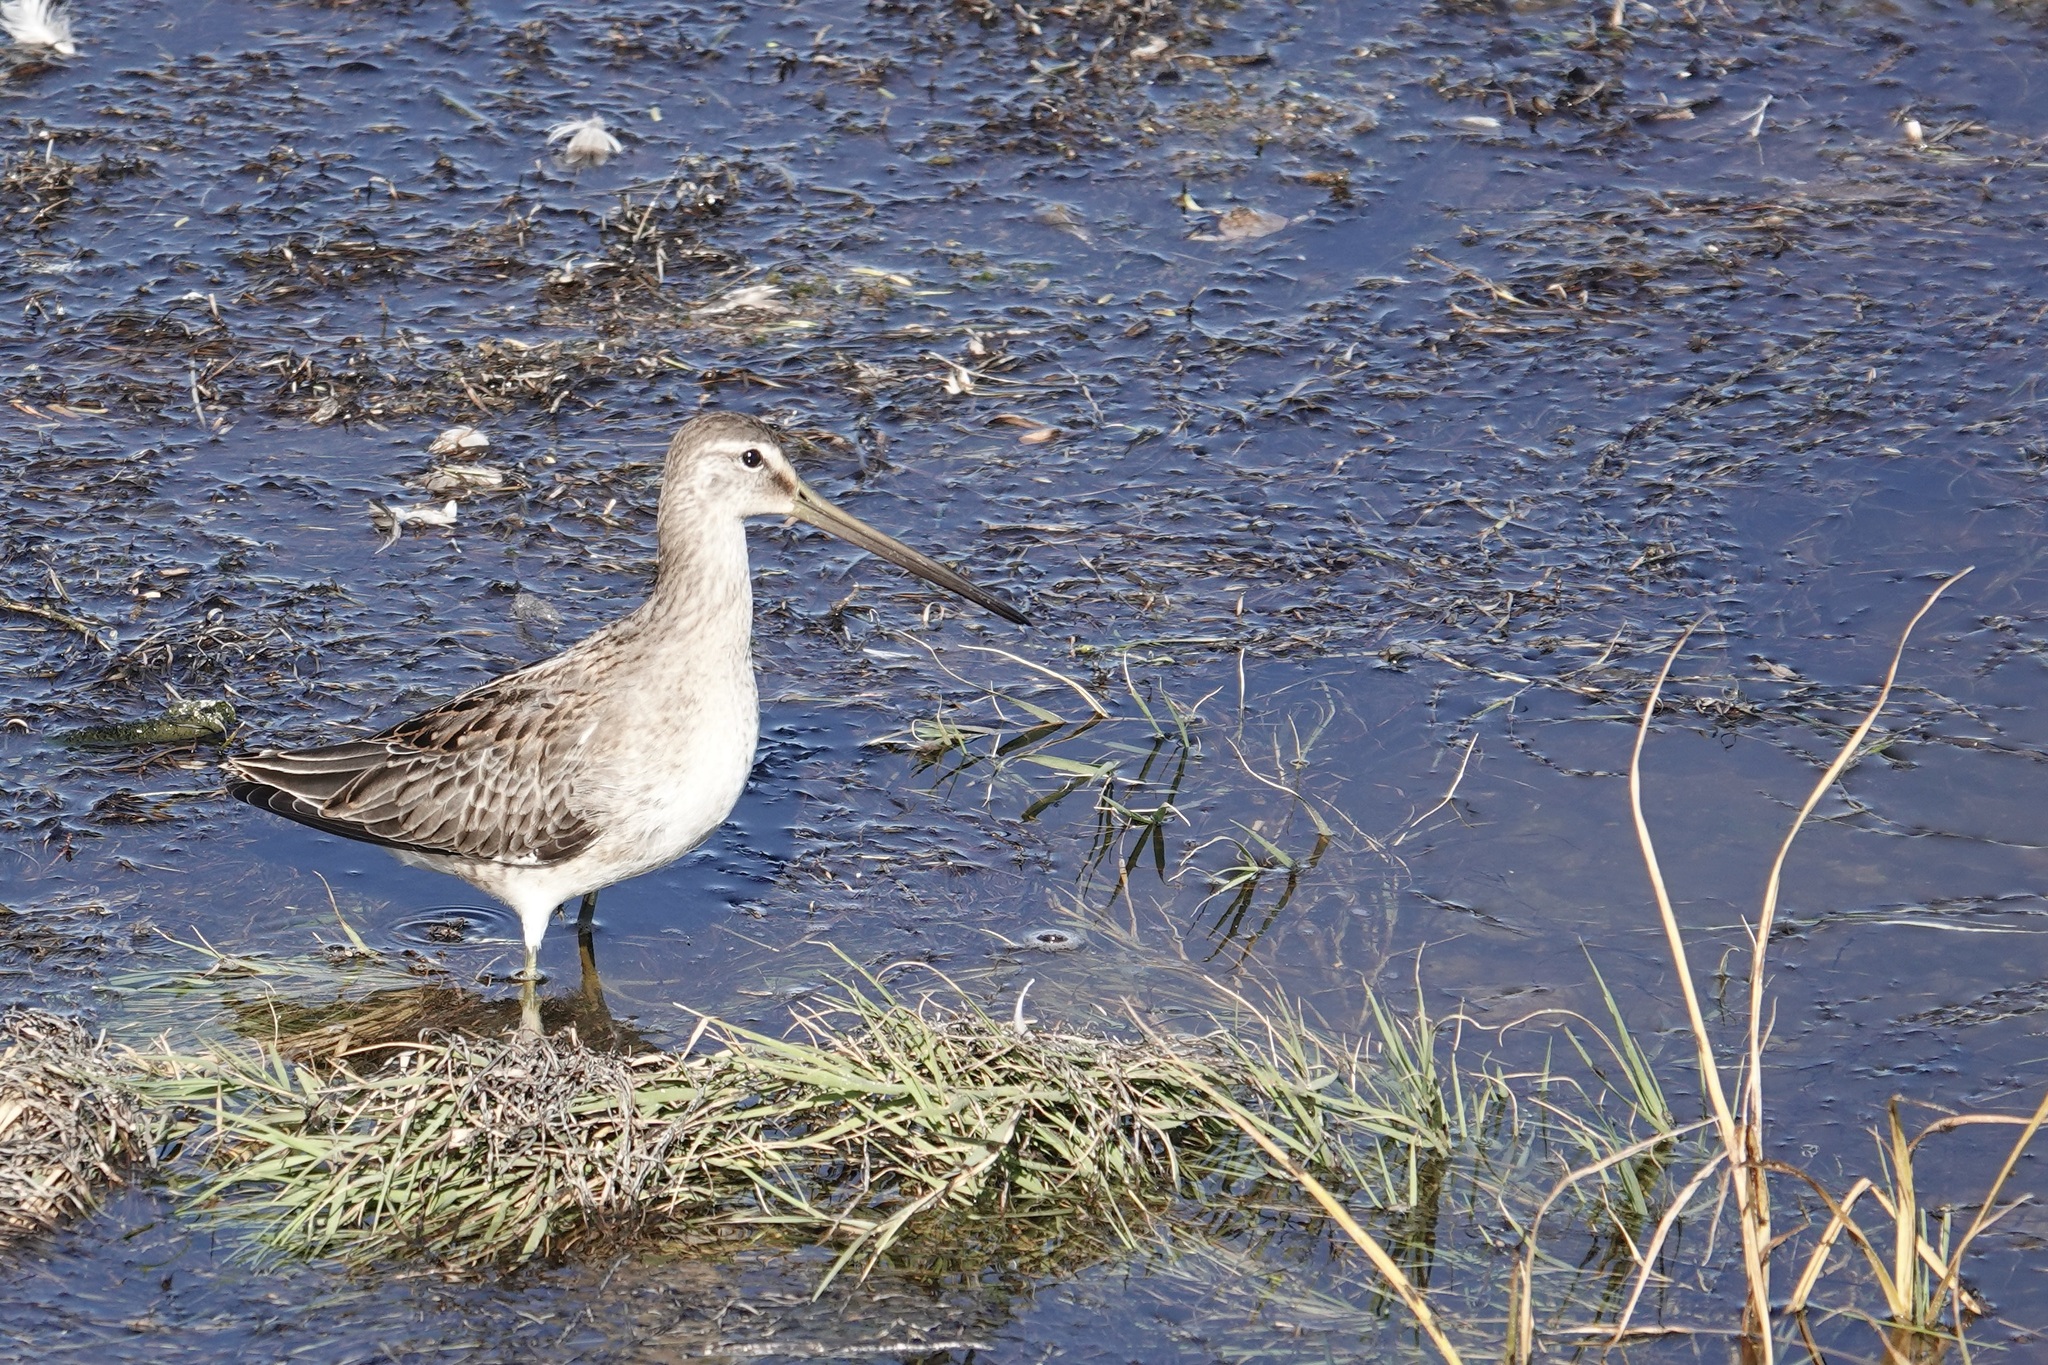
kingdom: Animalia
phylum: Chordata
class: Aves
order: Charadriiformes
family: Scolopacidae
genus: Limnodromus
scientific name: Limnodromus scolopaceus
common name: Long-billed dowitcher
